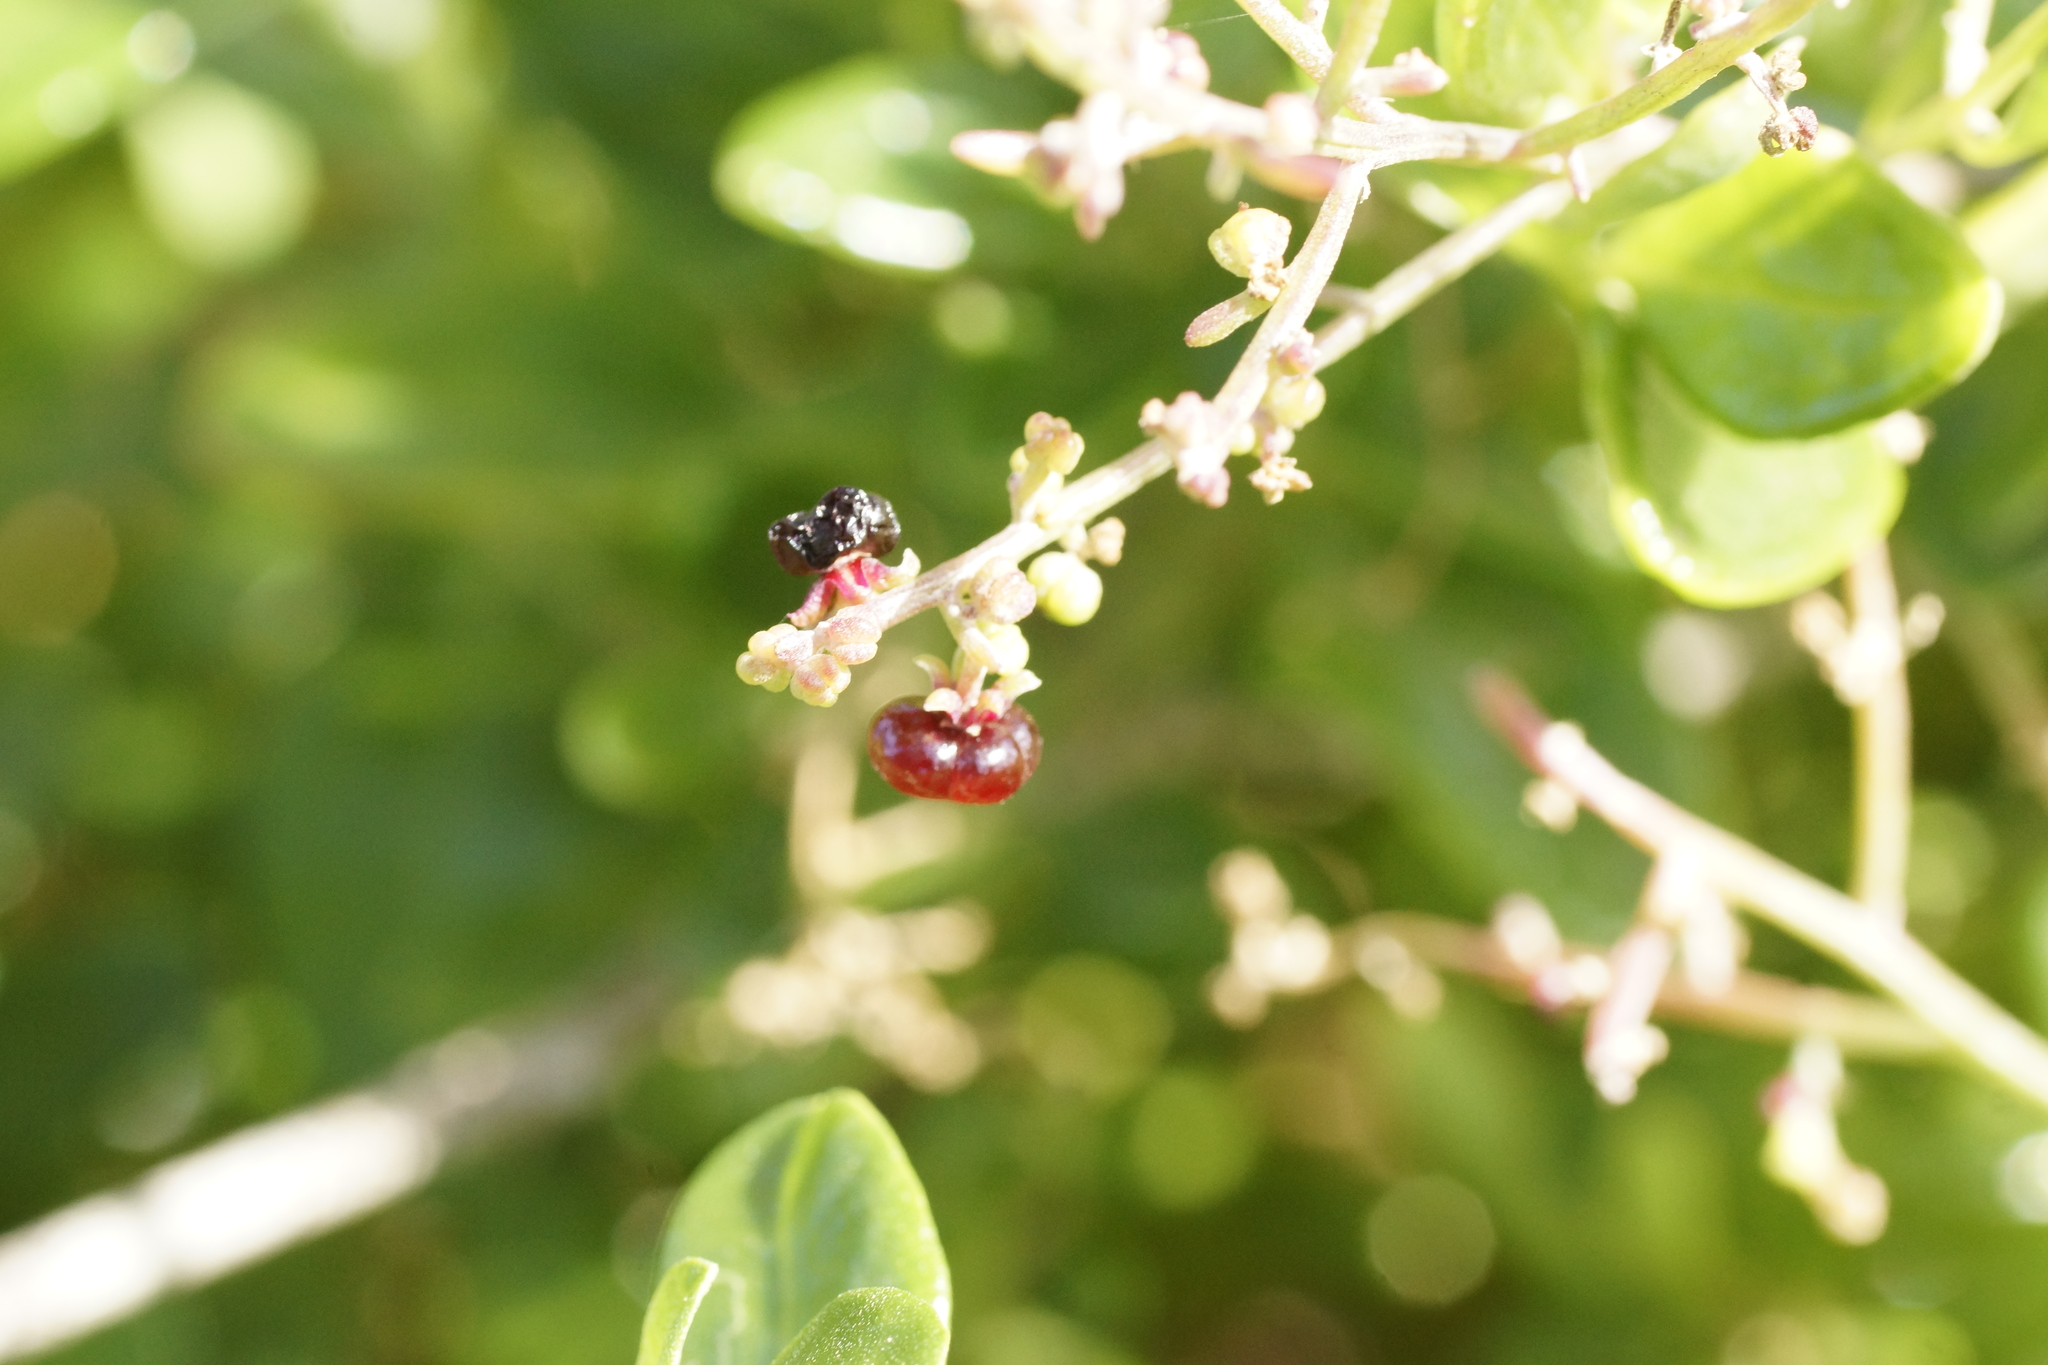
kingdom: Plantae
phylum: Tracheophyta
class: Magnoliopsida
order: Caryophyllales
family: Amaranthaceae
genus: Chenopodium
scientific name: Chenopodium candolleanum
